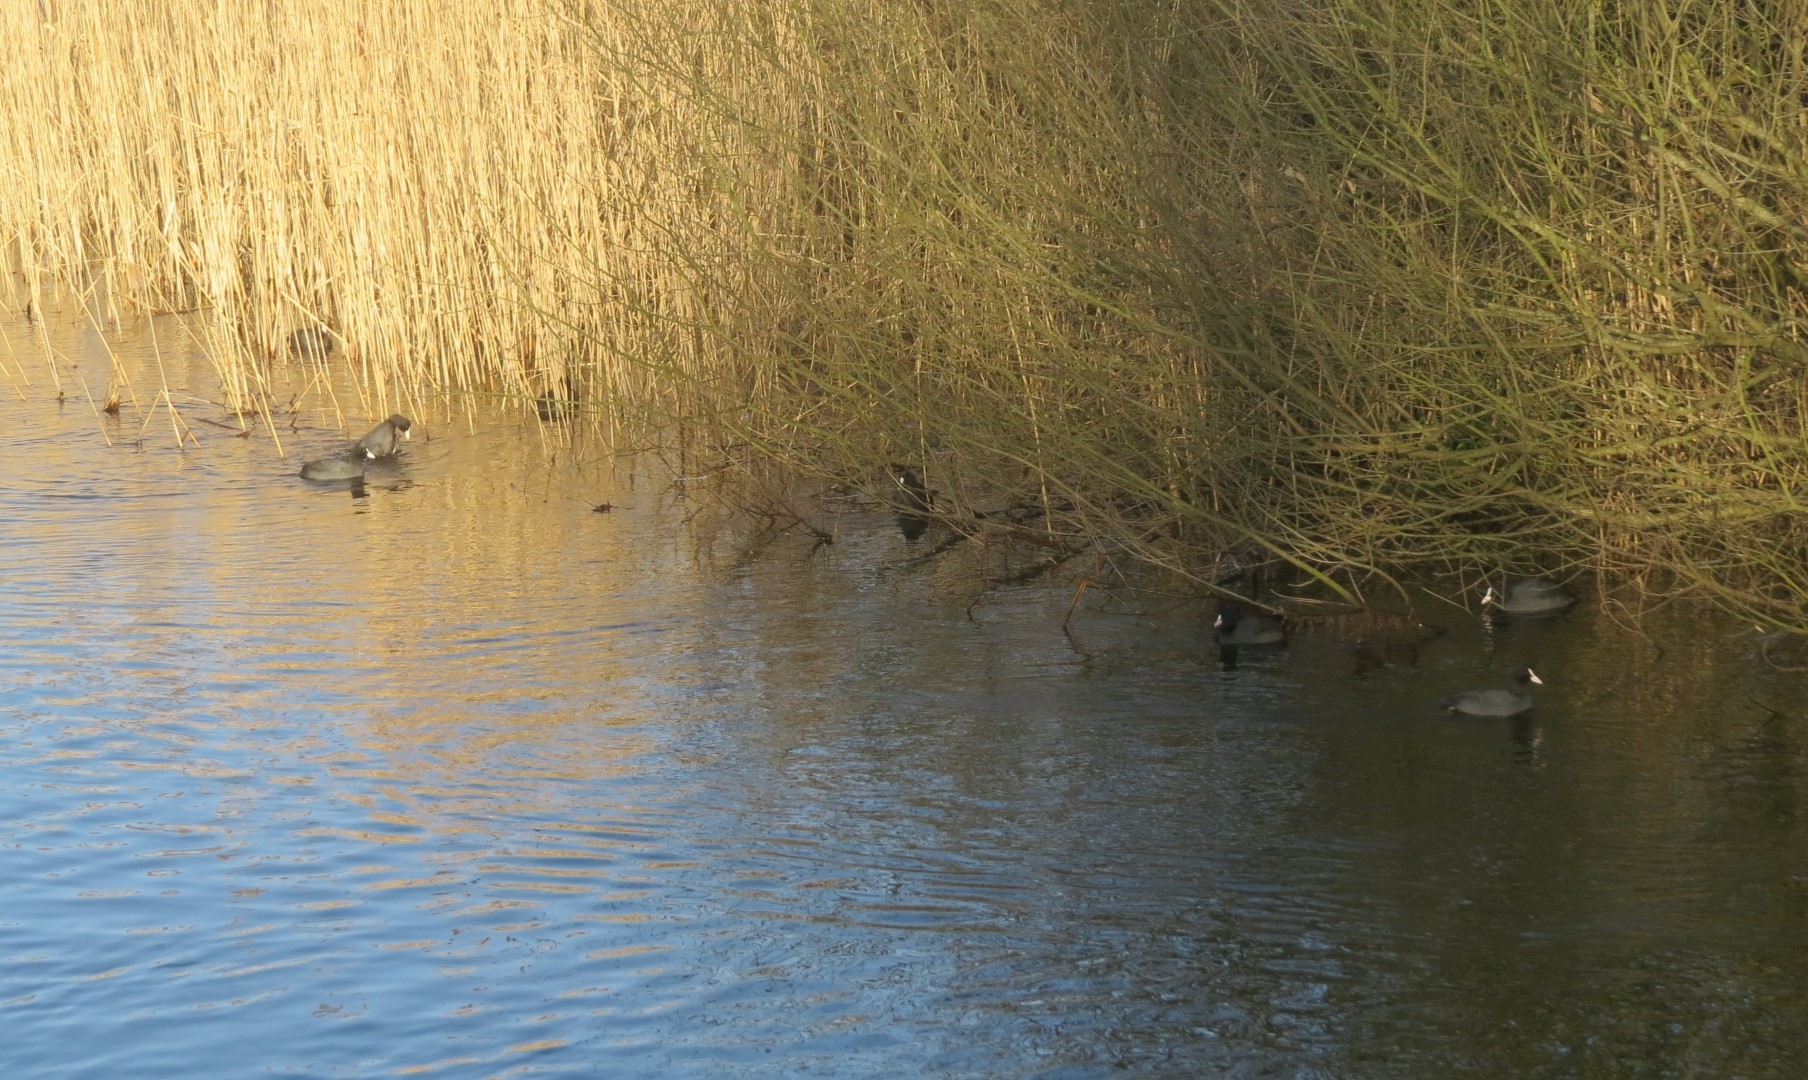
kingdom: Animalia
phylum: Chordata
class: Aves
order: Gruiformes
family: Rallidae
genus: Fulica
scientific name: Fulica atra
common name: Eurasian coot
